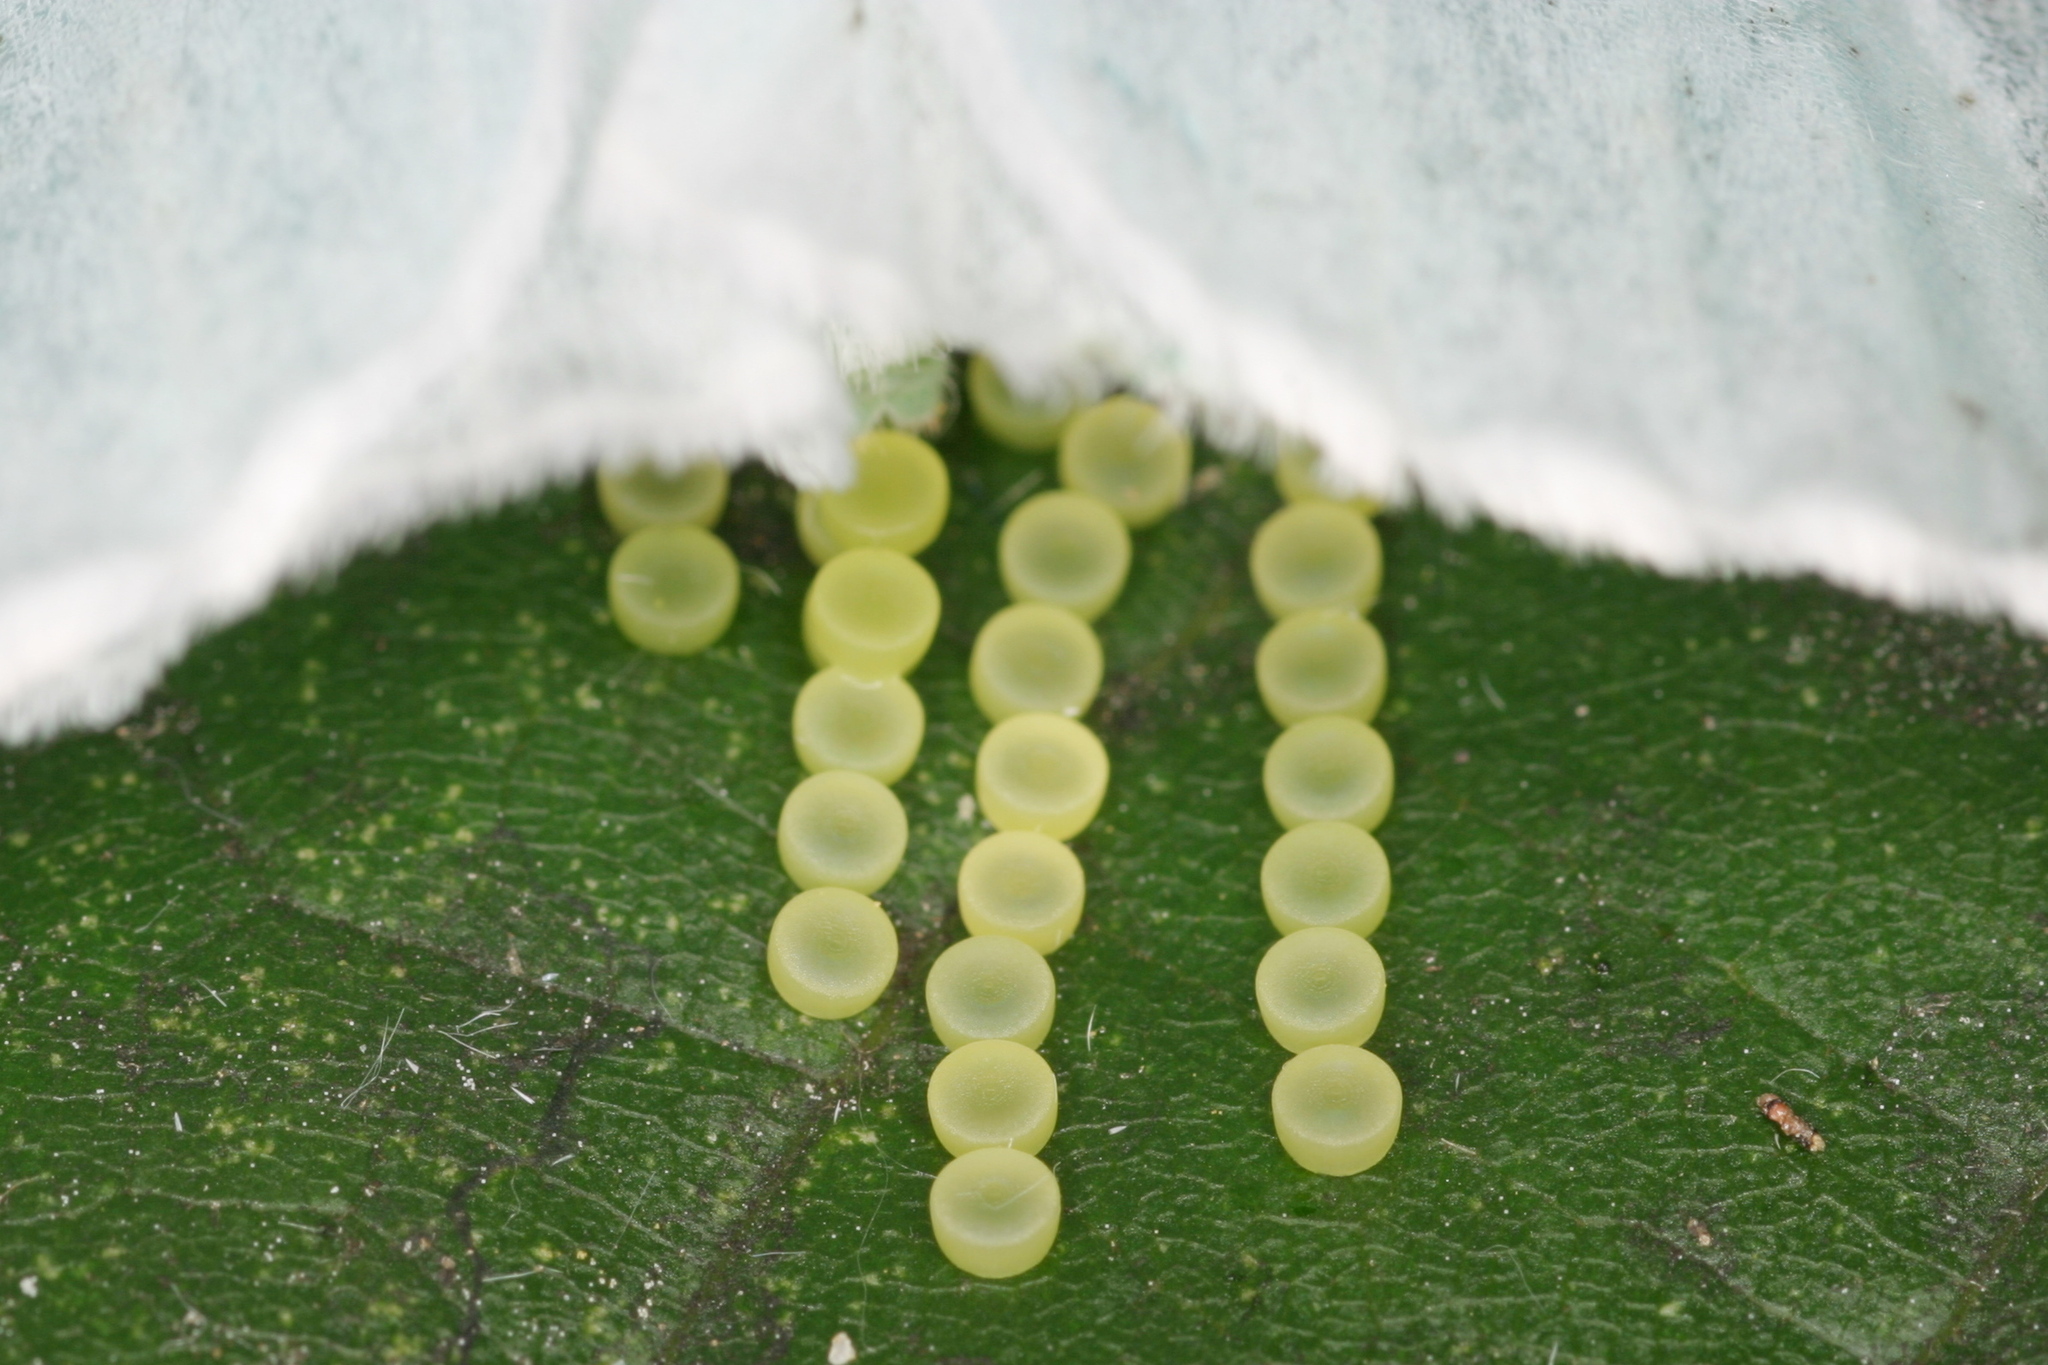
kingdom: Animalia
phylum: Arthropoda
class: Insecta
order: Lepidoptera
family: Erebidae
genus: Arctornis
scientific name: Arctornis l-nigrum
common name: Black v moth
